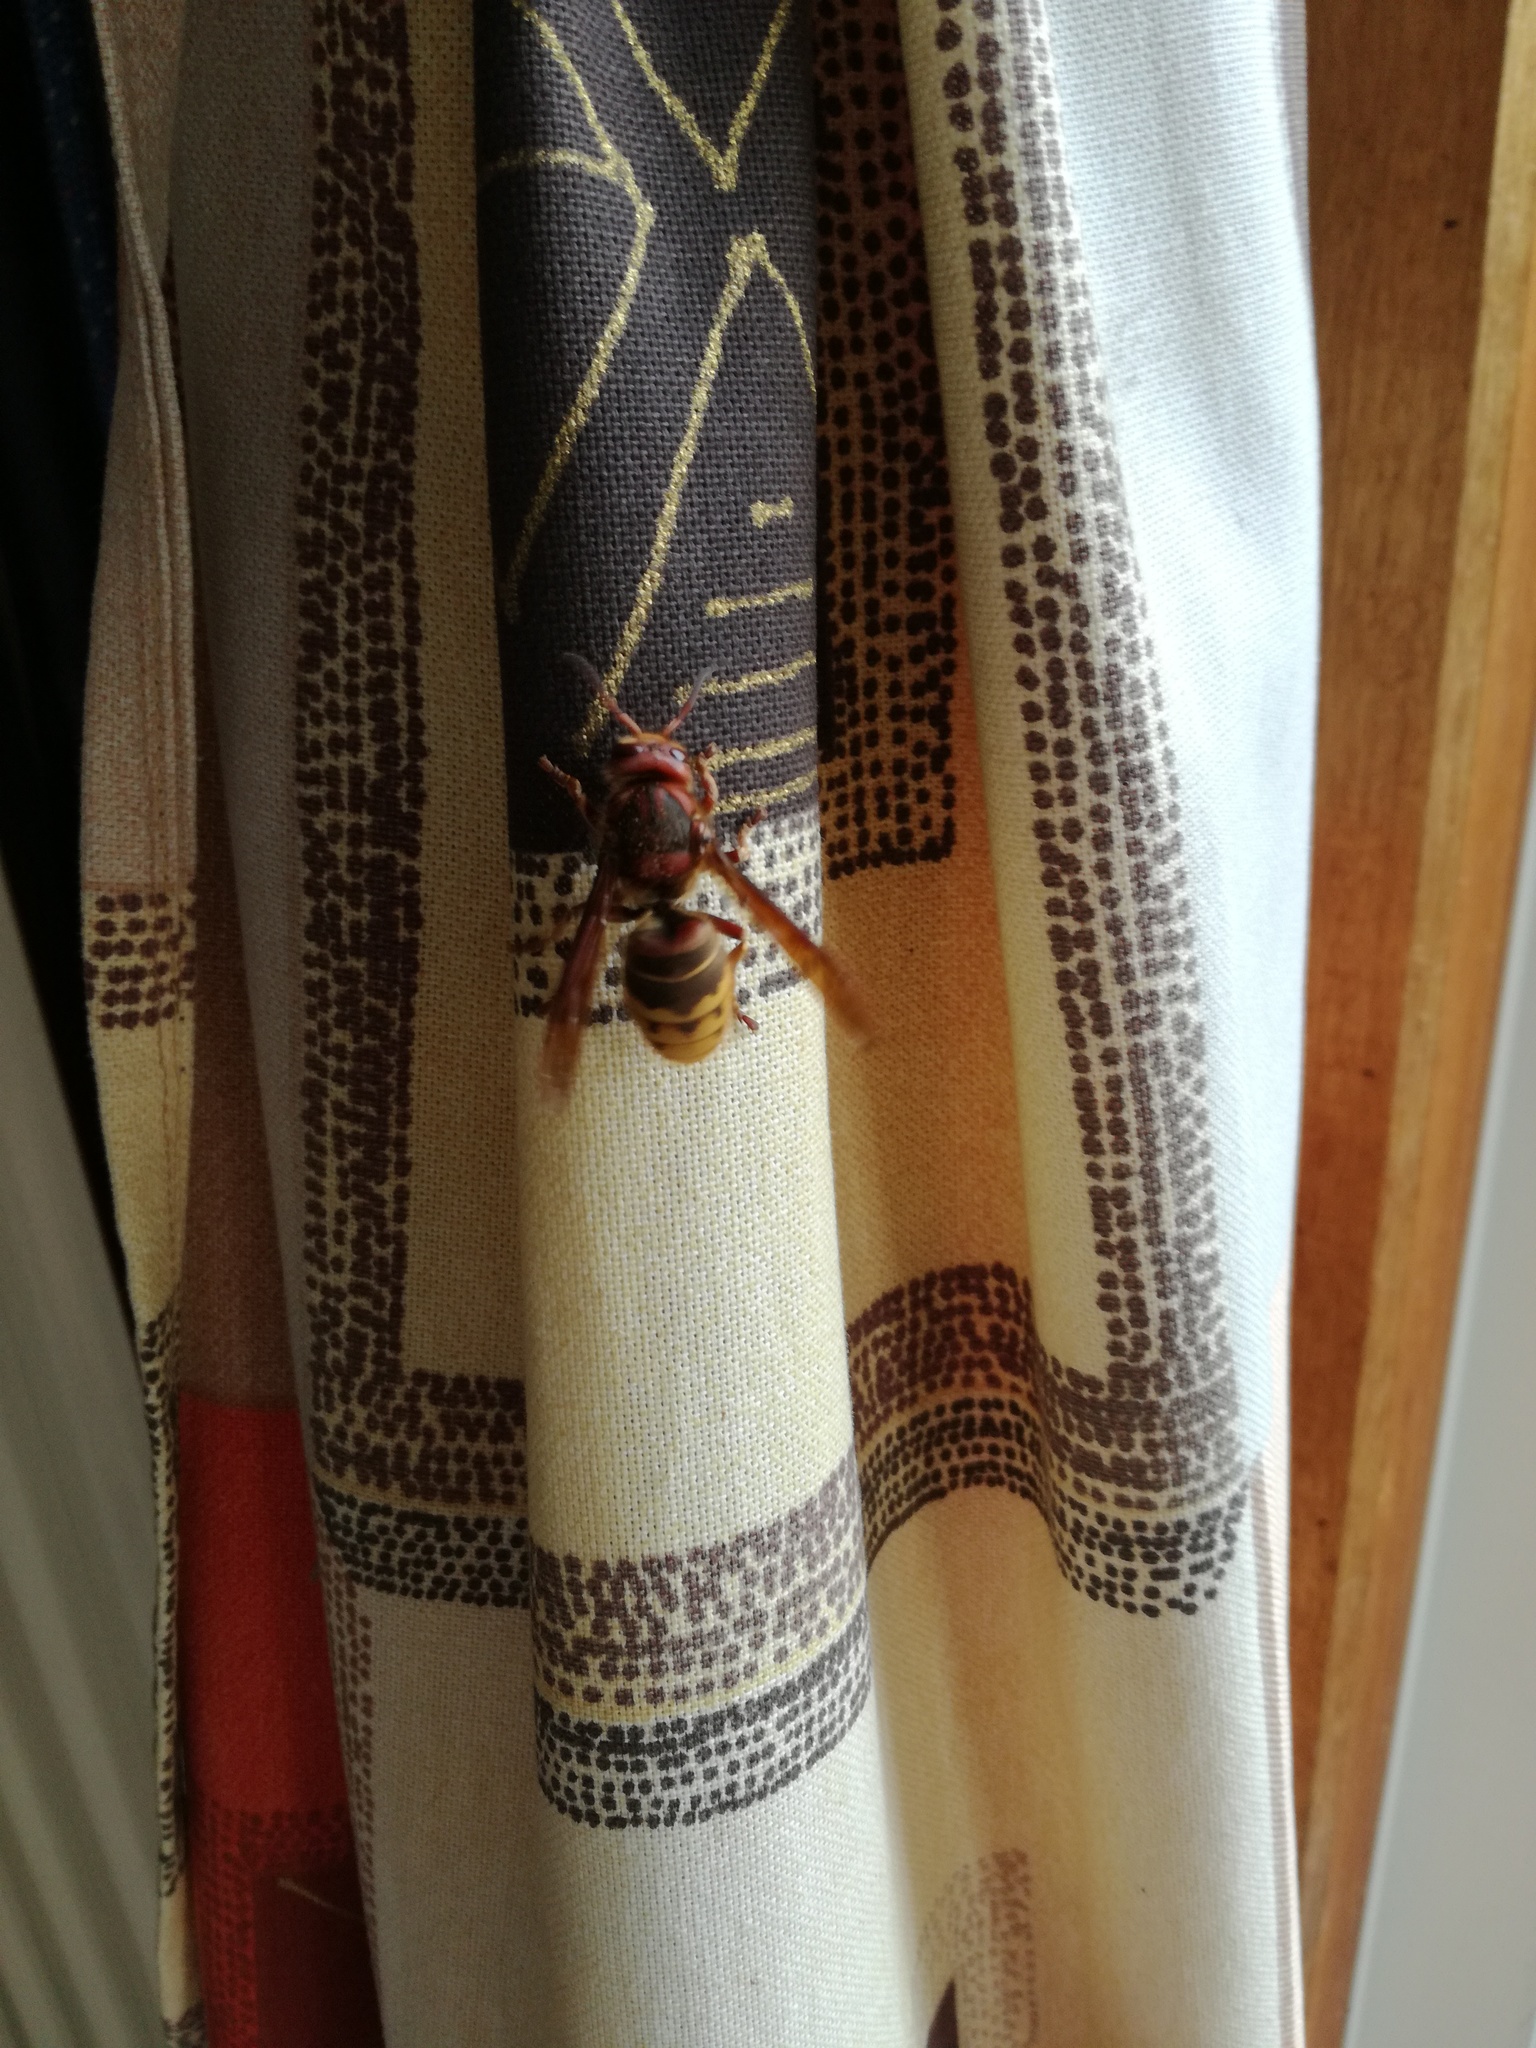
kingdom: Animalia
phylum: Arthropoda
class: Insecta
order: Hymenoptera
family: Vespidae
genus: Vespa
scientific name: Vespa crabro
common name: Hornet
